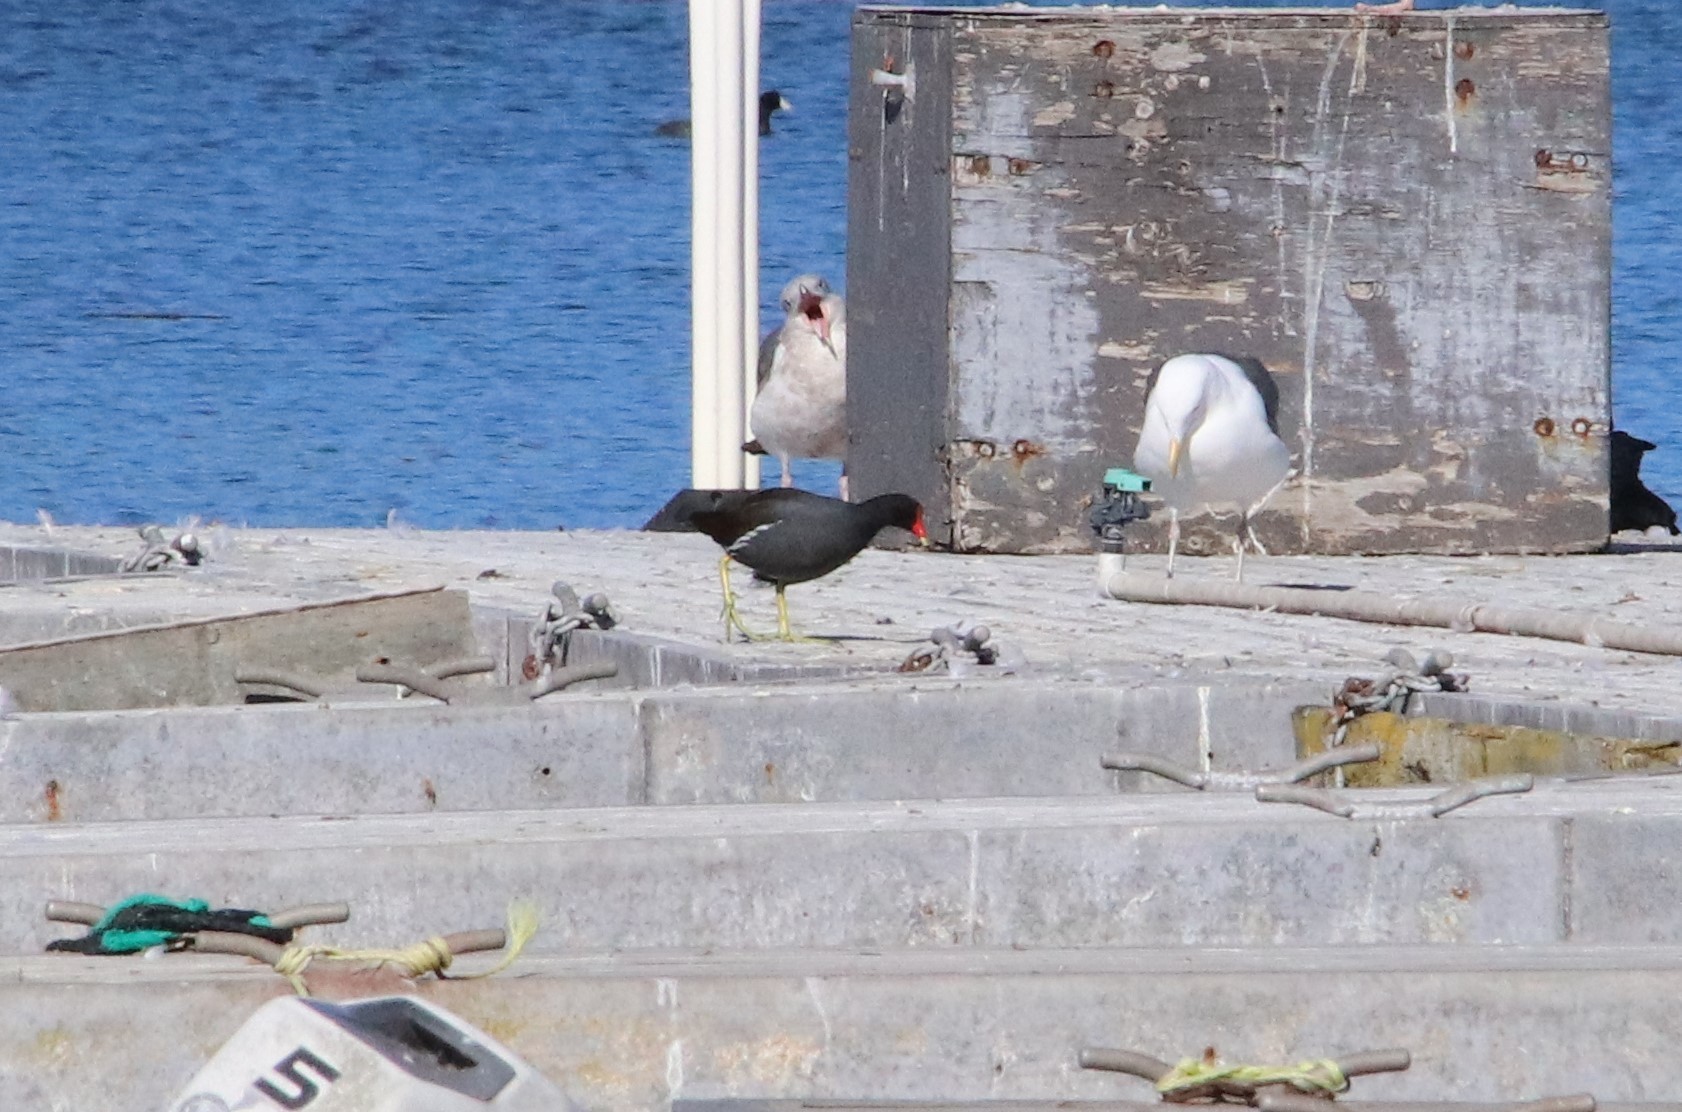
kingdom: Animalia
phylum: Chordata
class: Aves
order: Gruiformes
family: Rallidae
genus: Gallinula
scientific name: Gallinula chloropus
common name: Common moorhen
